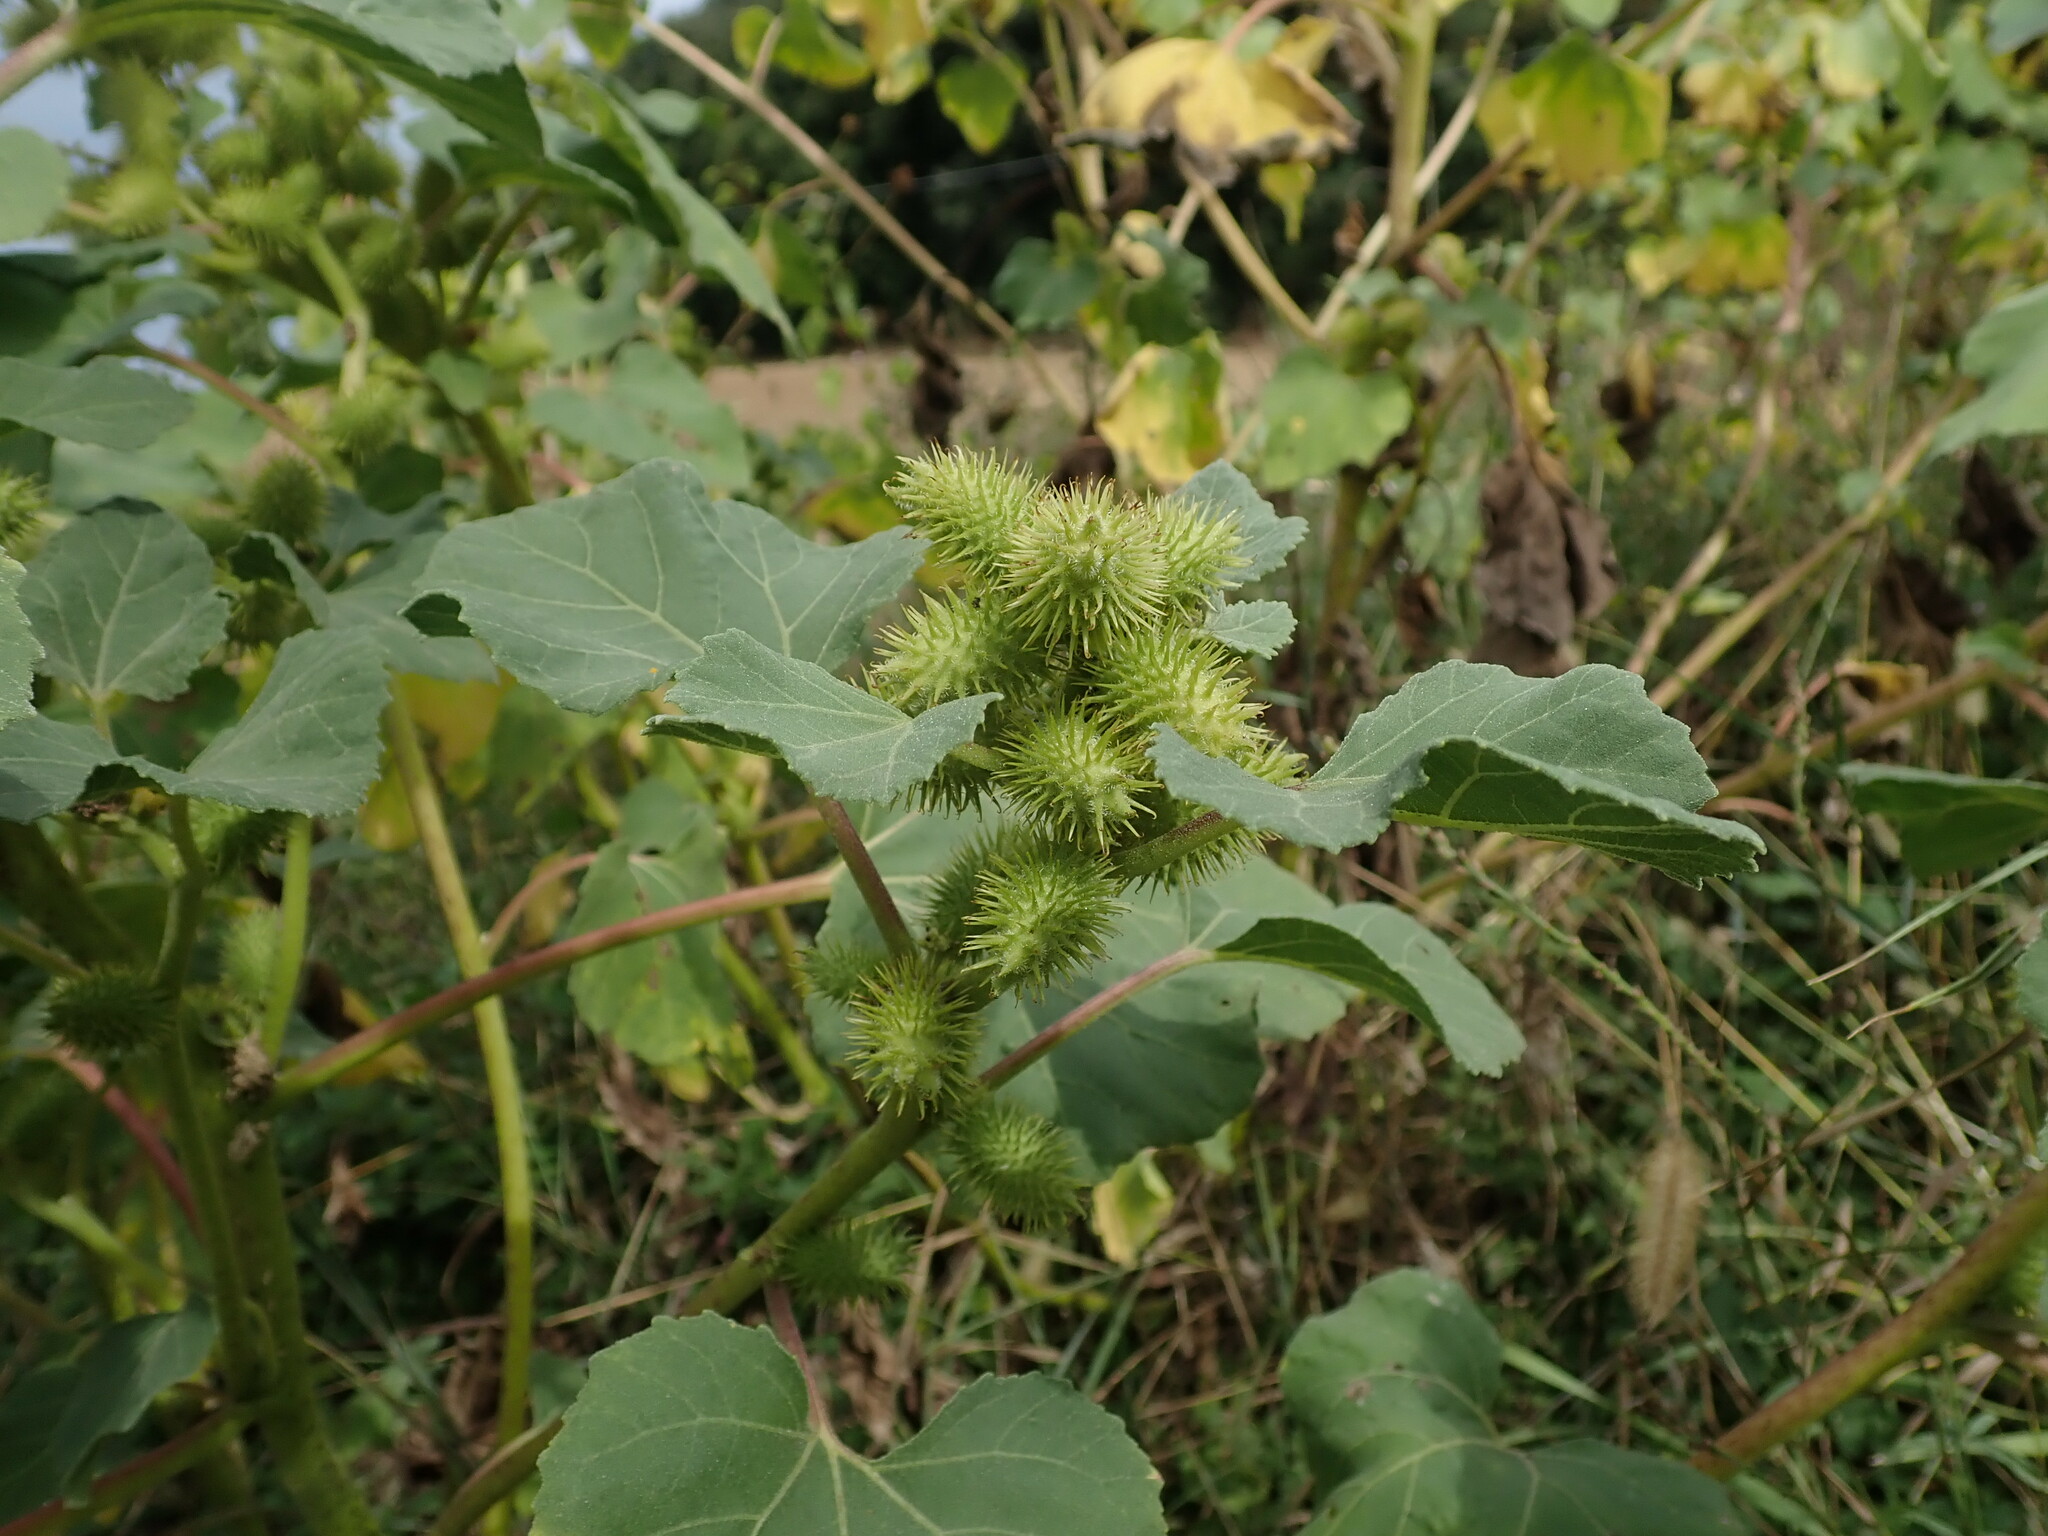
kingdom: Plantae
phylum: Tracheophyta
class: Magnoliopsida
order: Asterales
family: Asteraceae
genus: Xanthium
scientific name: Xanthium orientale
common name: Californian burr
